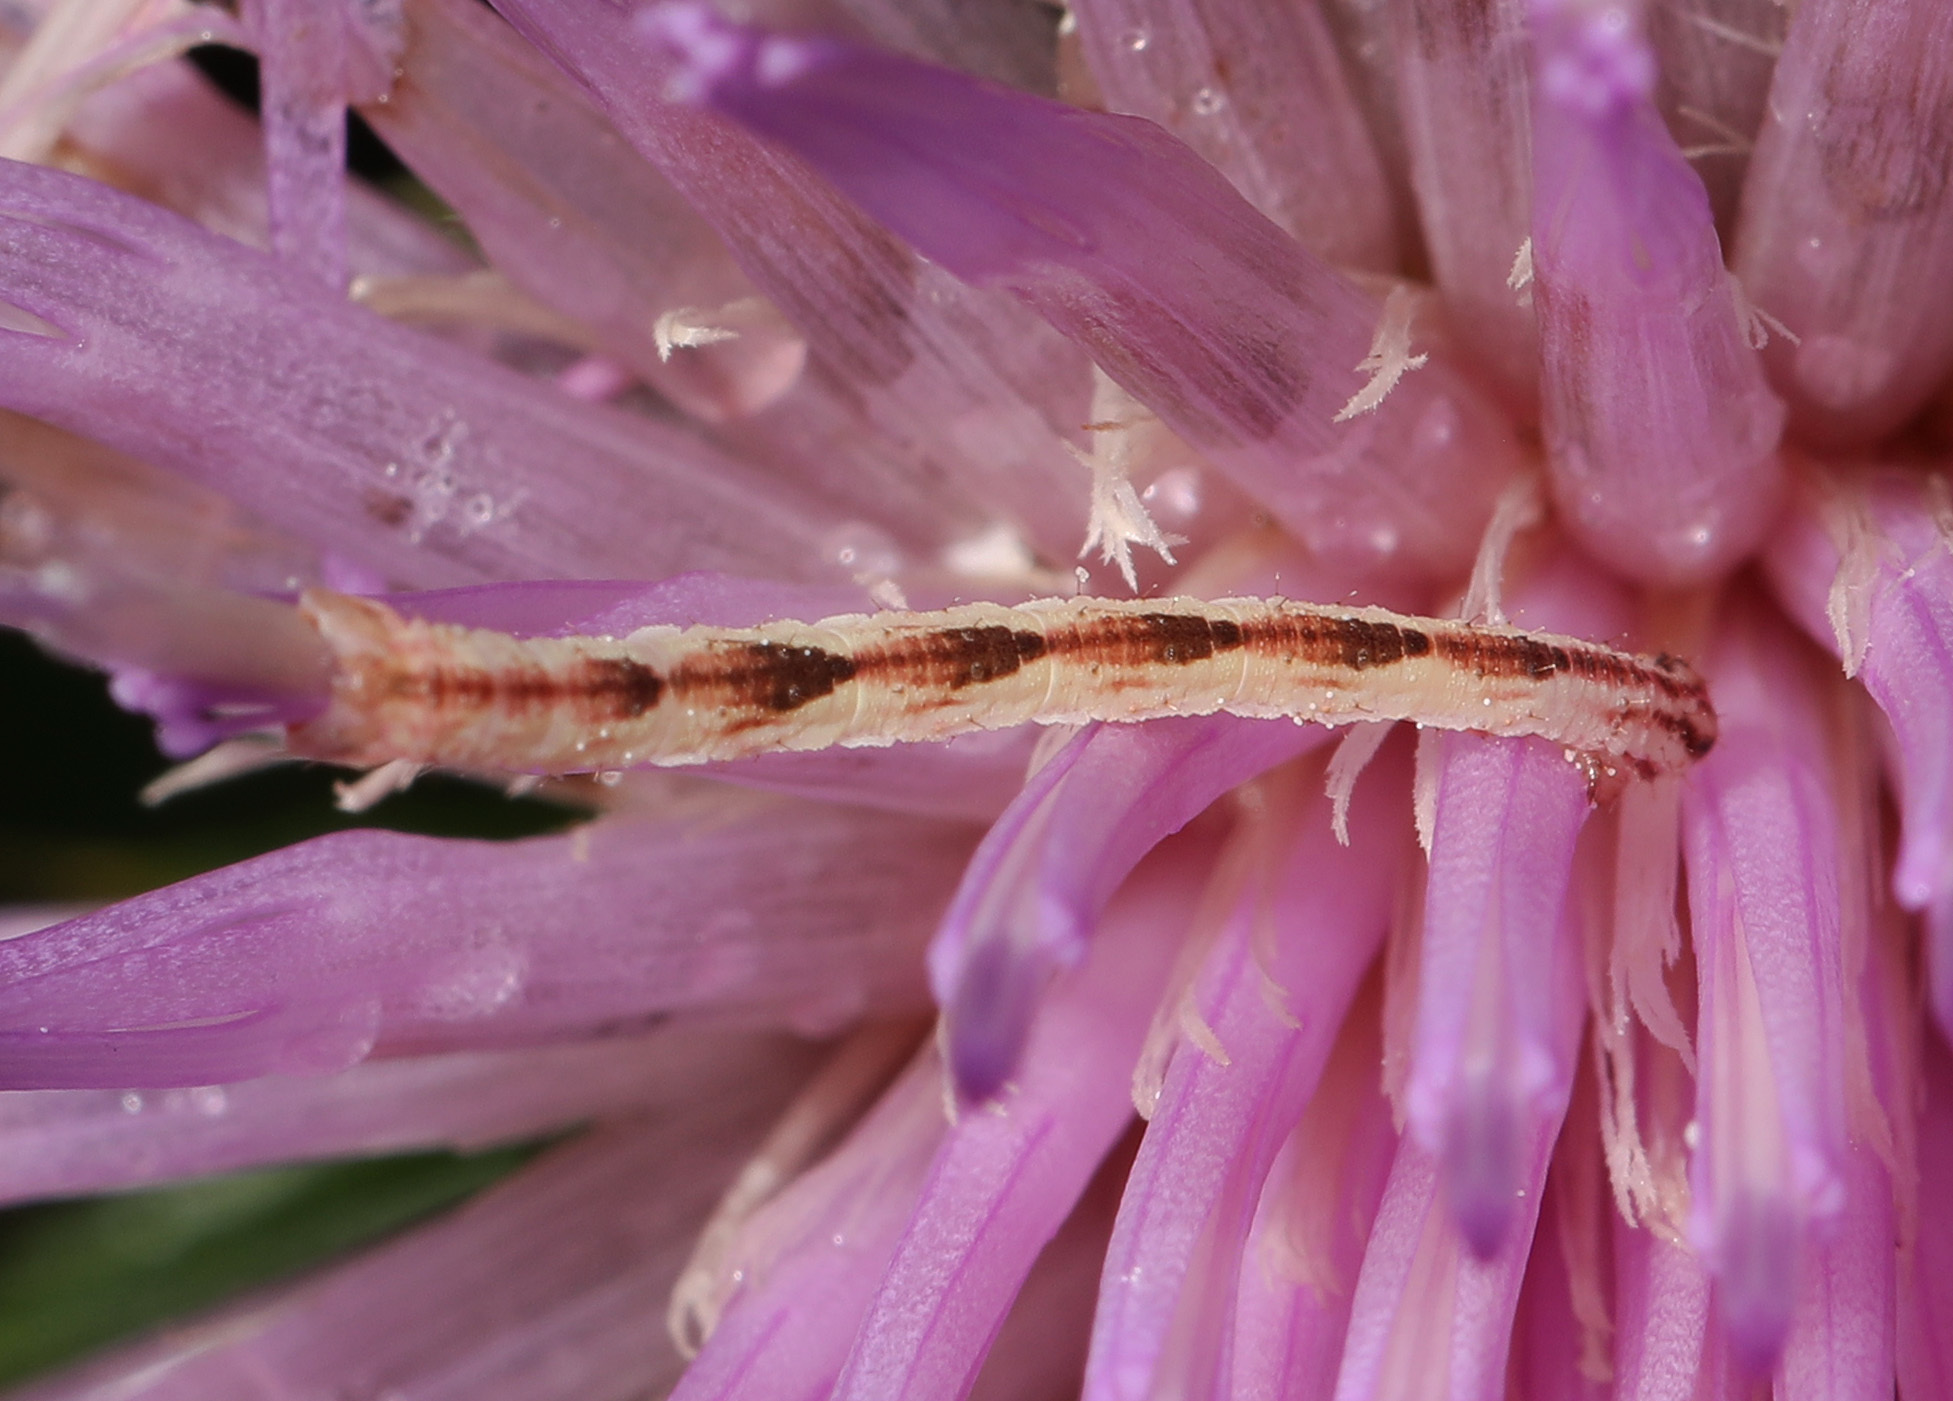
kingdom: Animalia
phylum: Arthropoda
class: Insecta
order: Lepidoptera
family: Geometridae
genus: Eupithecia
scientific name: Eupithecia miserulata
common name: Common eupithecia
